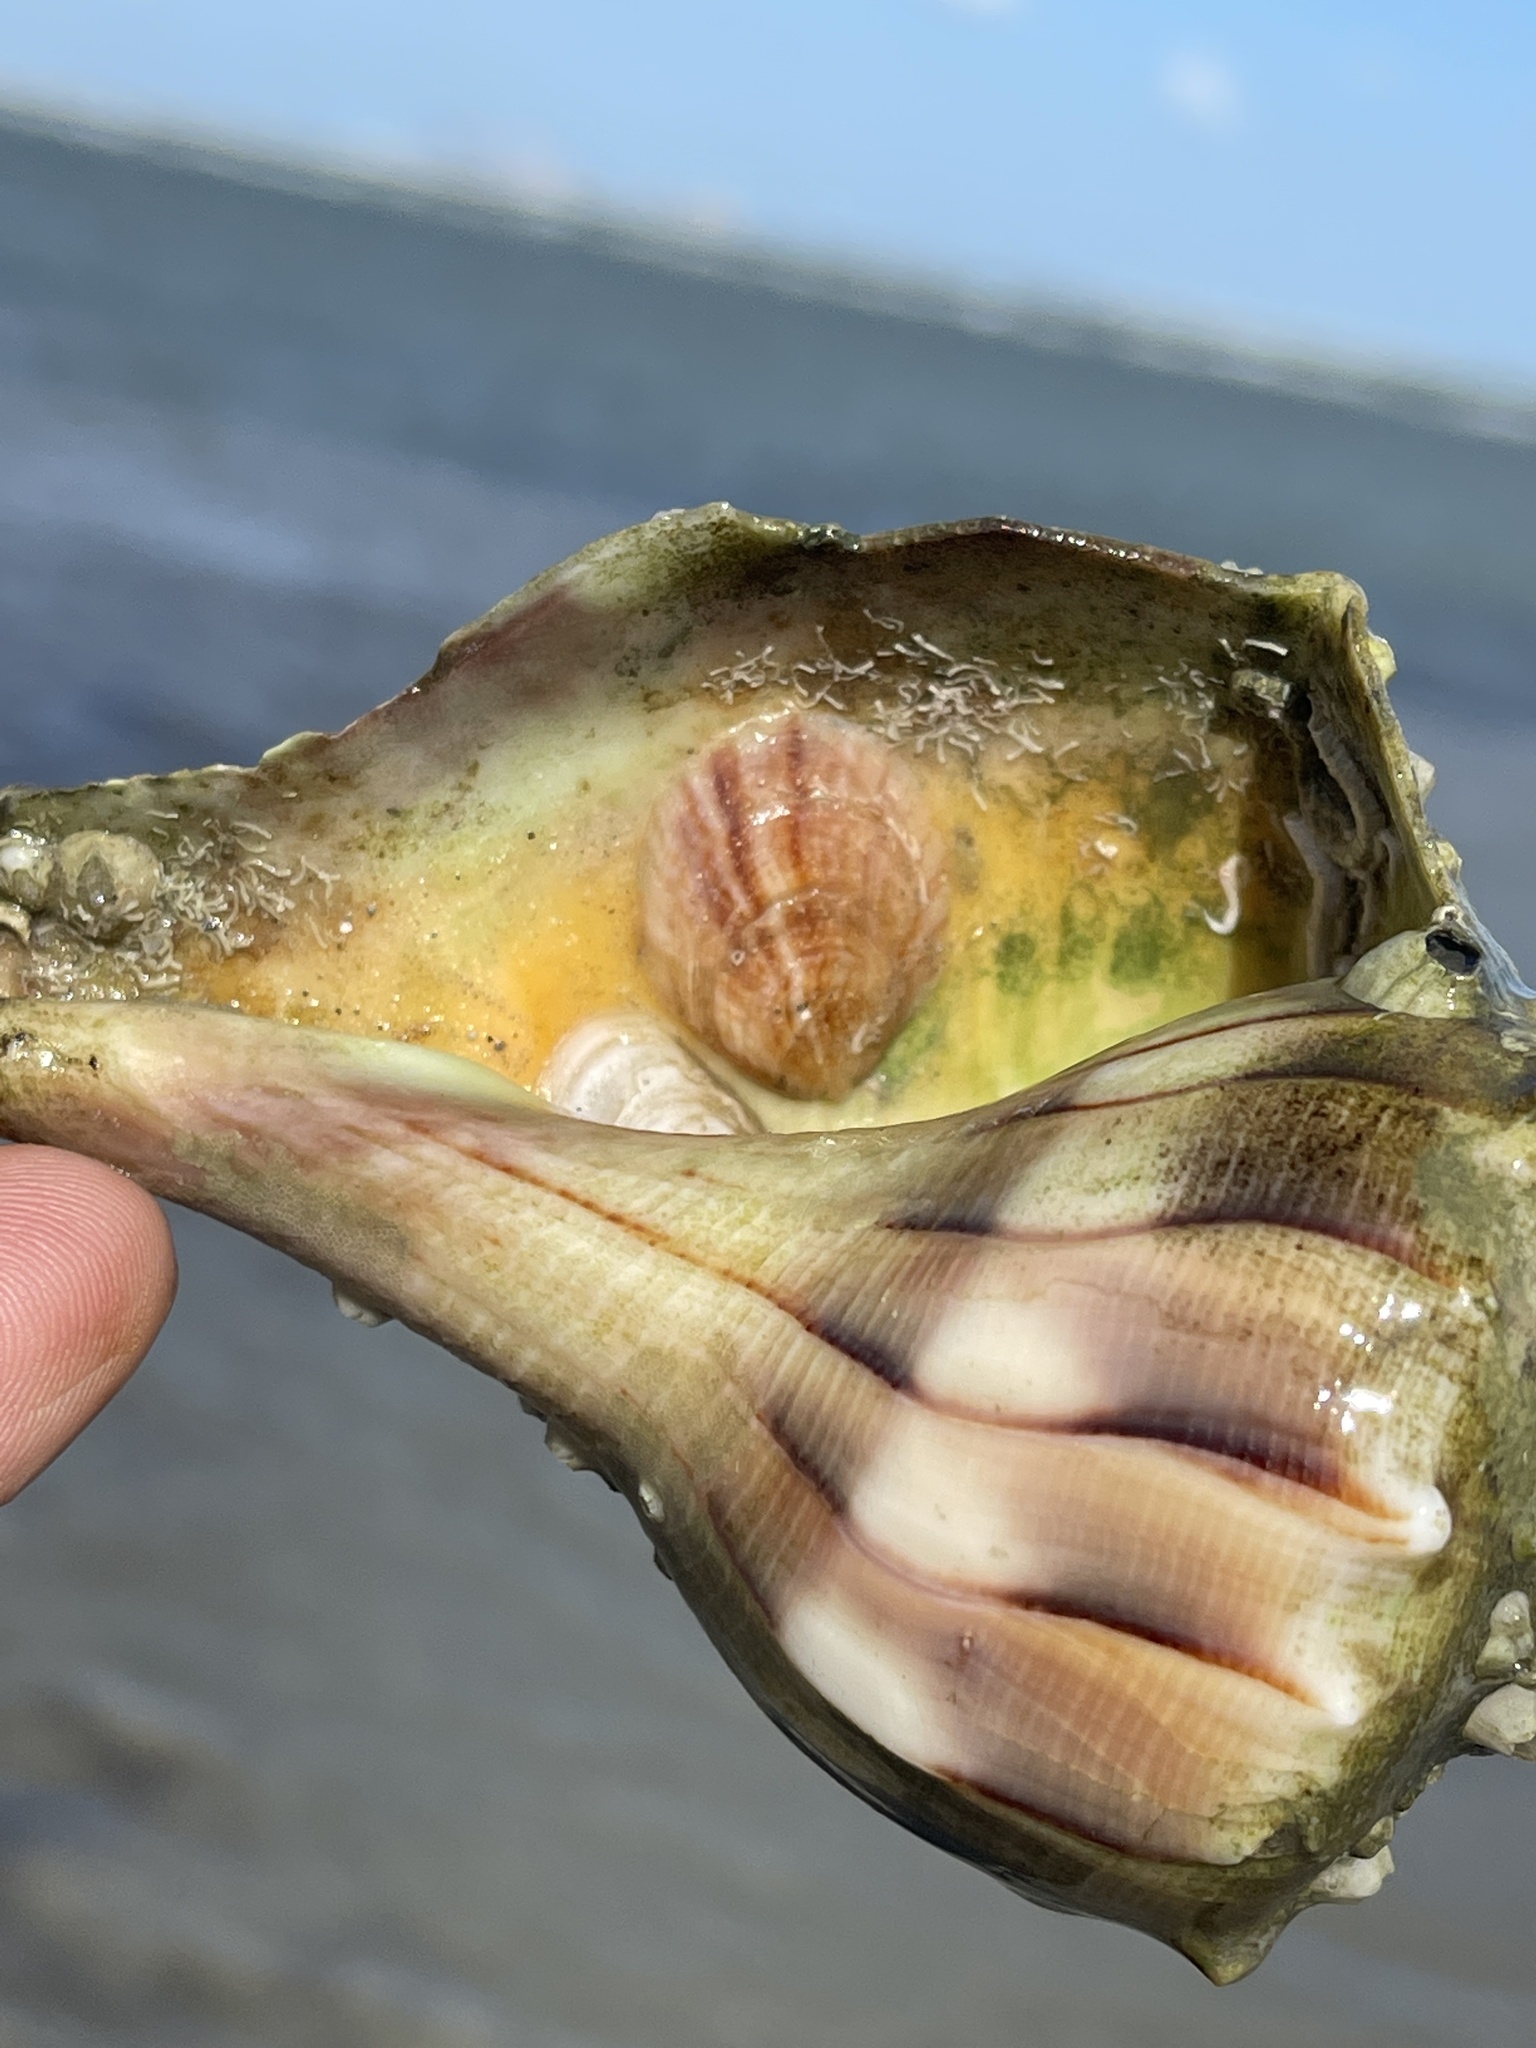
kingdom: Animalia
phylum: Mollusca
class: Gastropoda
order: Littorinimorpha
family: Calyptraeidae
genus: Crepidula
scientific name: Crepidula fornicata
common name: Slipper limpet
